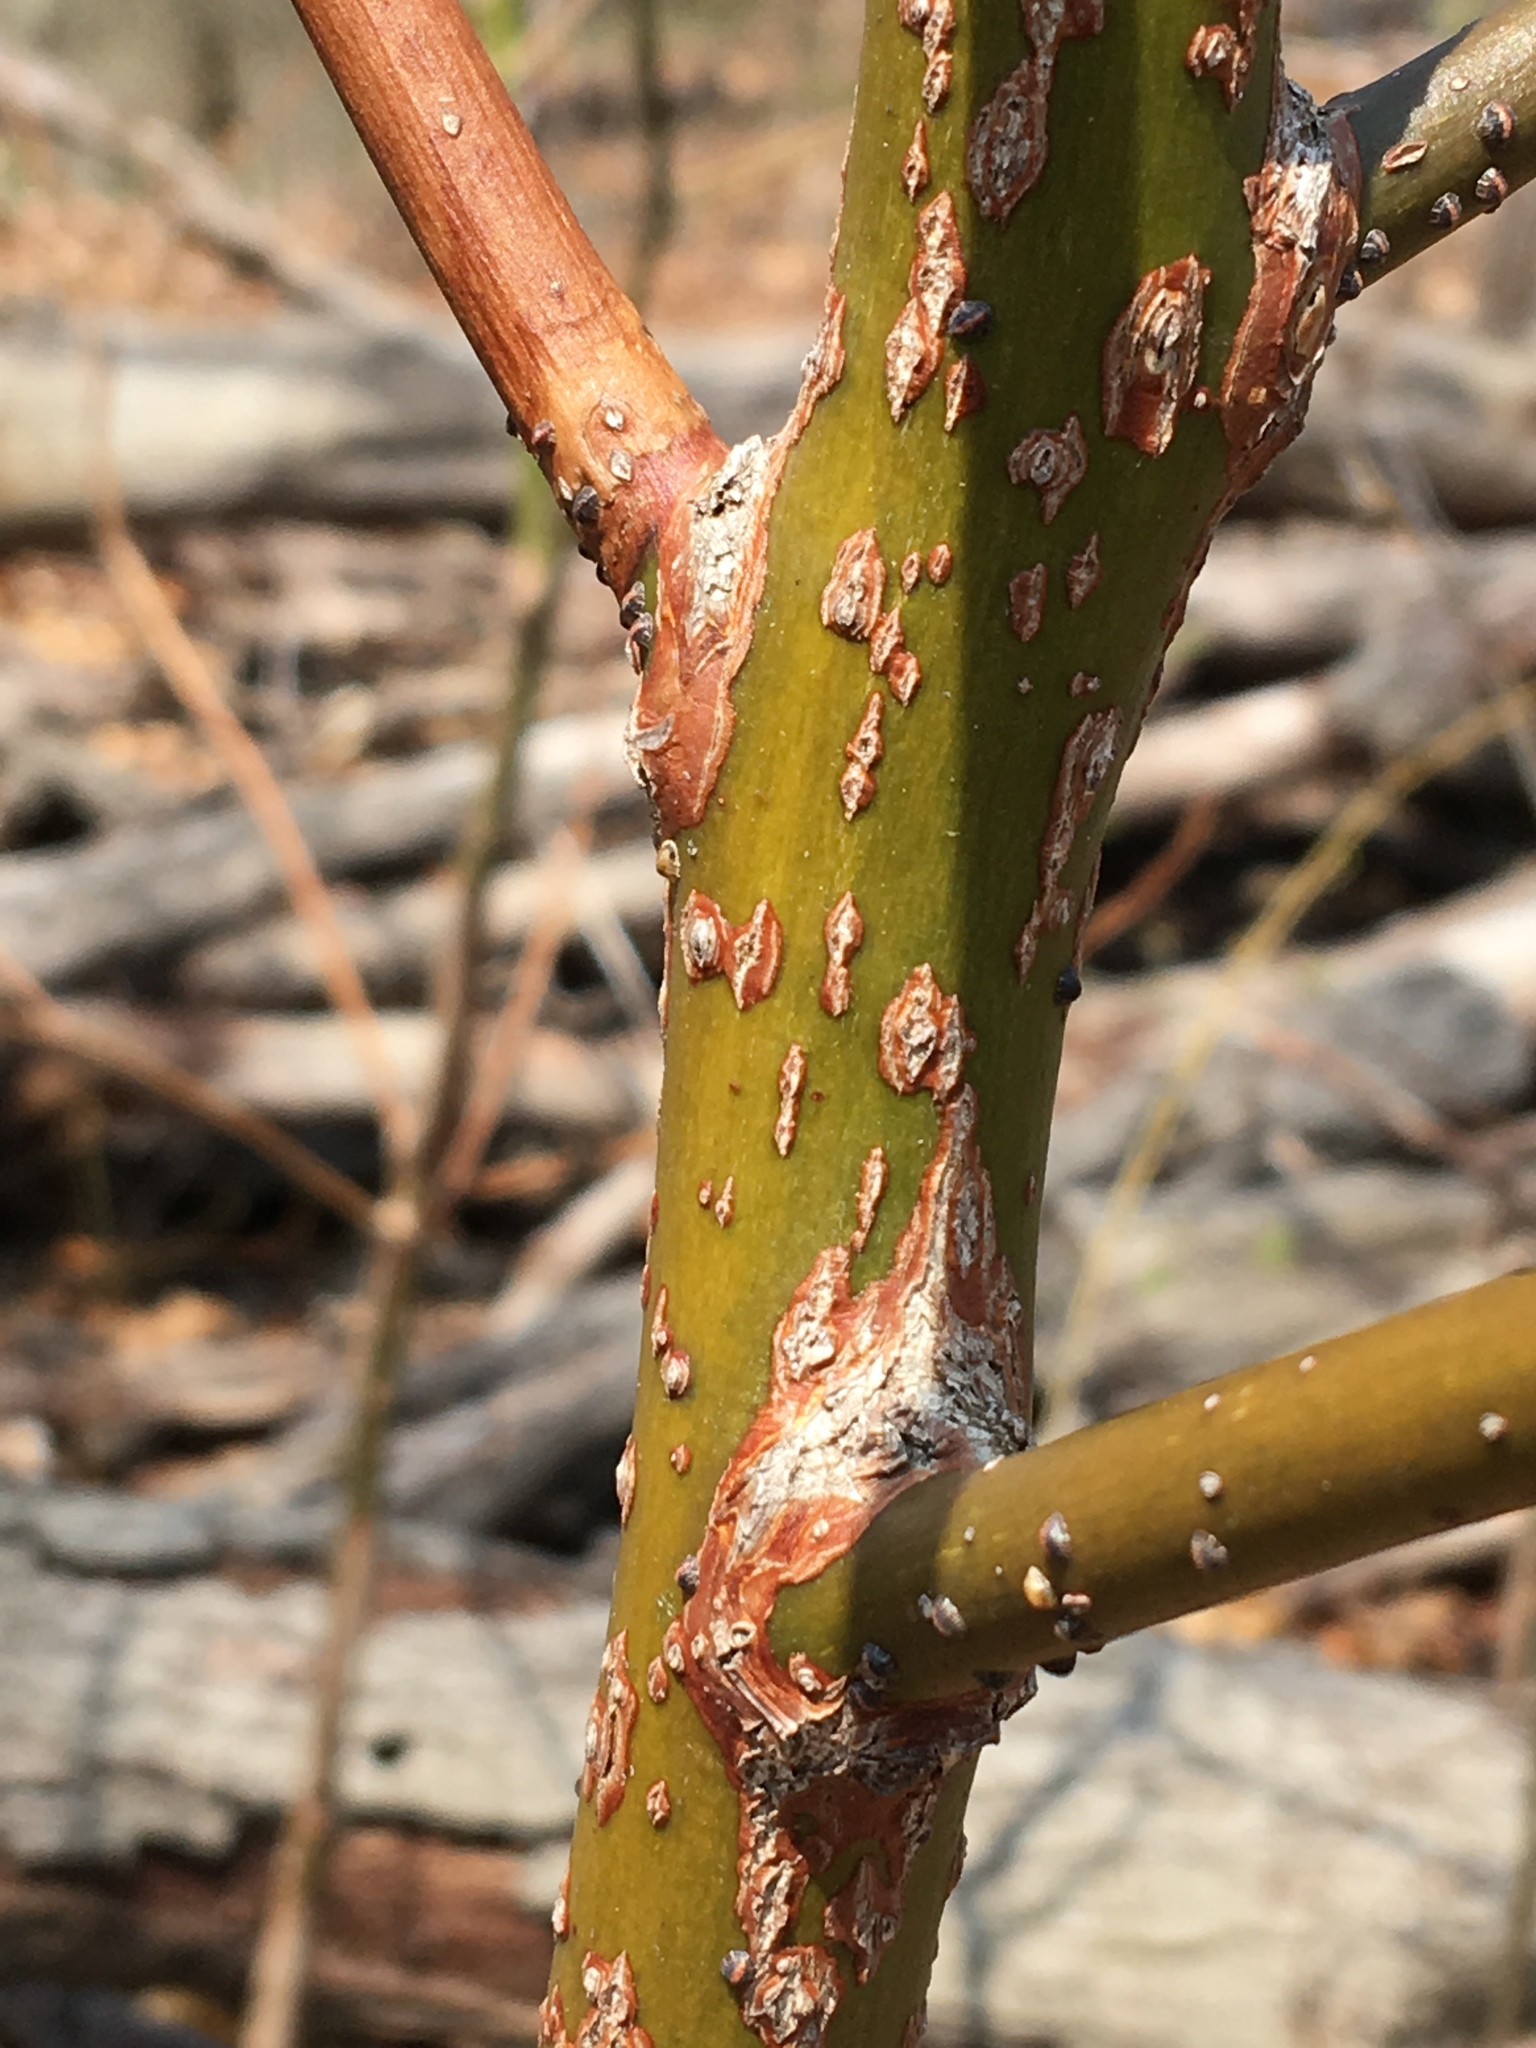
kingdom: Plantae
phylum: Tracheophyta
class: Magnoliopsida
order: Laurales
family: Lauraceae
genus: Sassafras
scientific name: Sassafras albidum
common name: Sassafras
